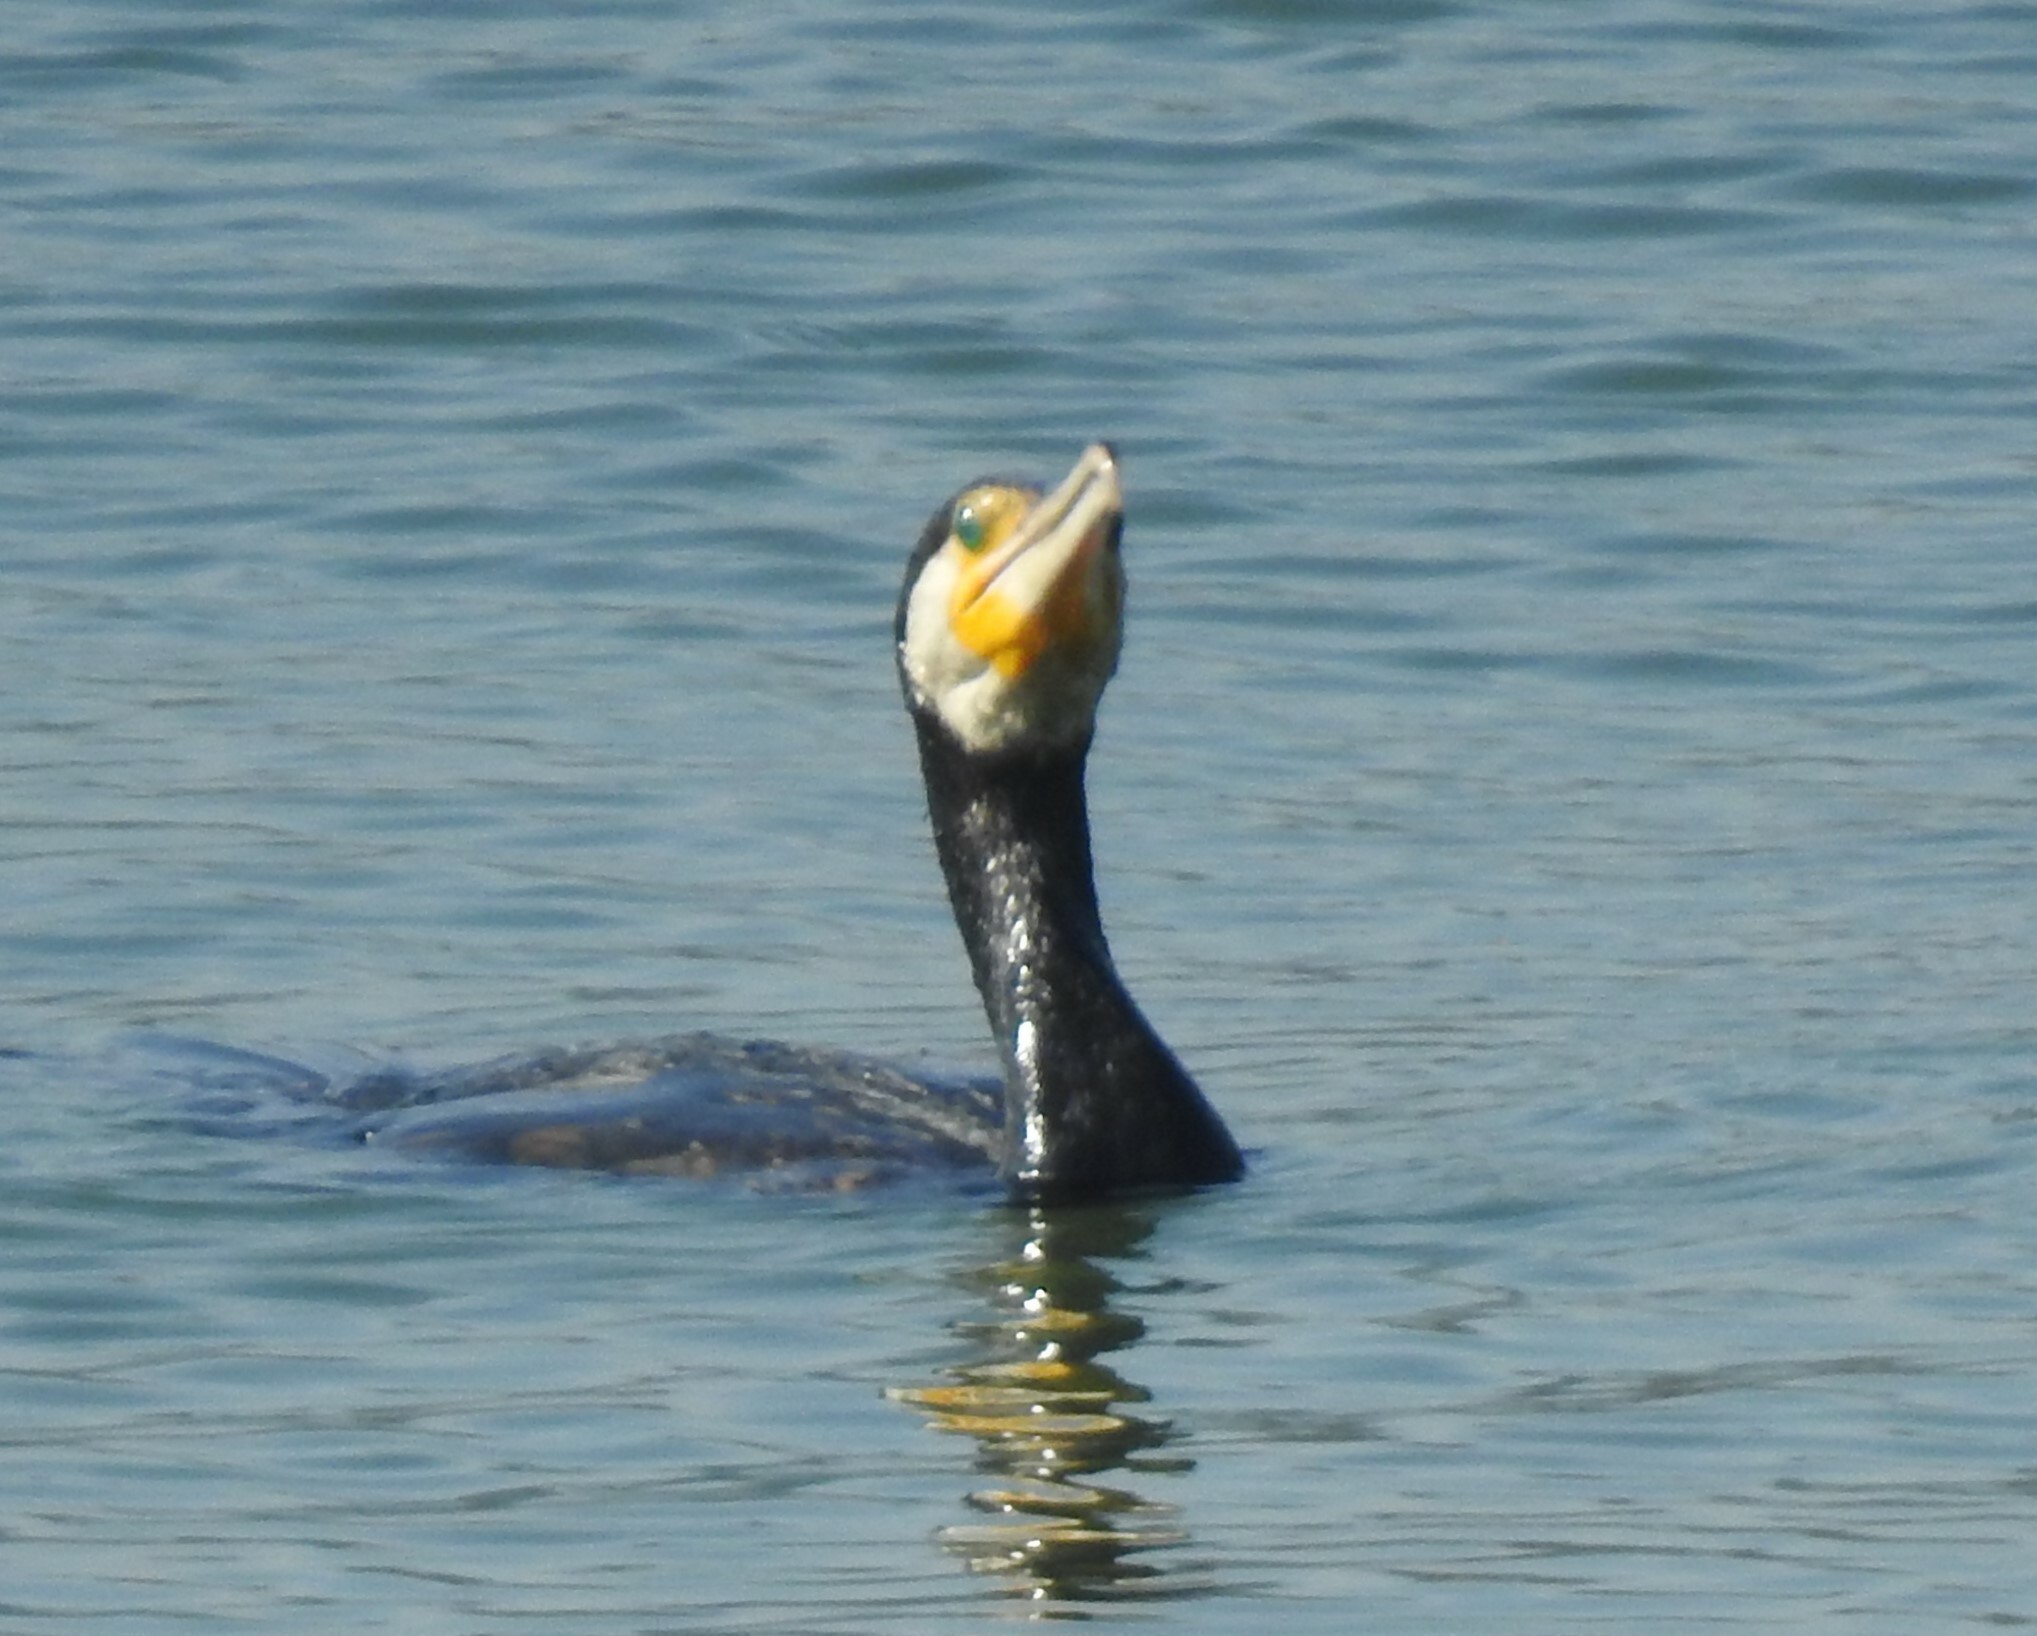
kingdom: Animalia
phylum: Chordata
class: Aves
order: Suliformes
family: Phalacrocoracidae
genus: Phalacrocorax
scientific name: Phalacrocorax carbo
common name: Great cormorant
